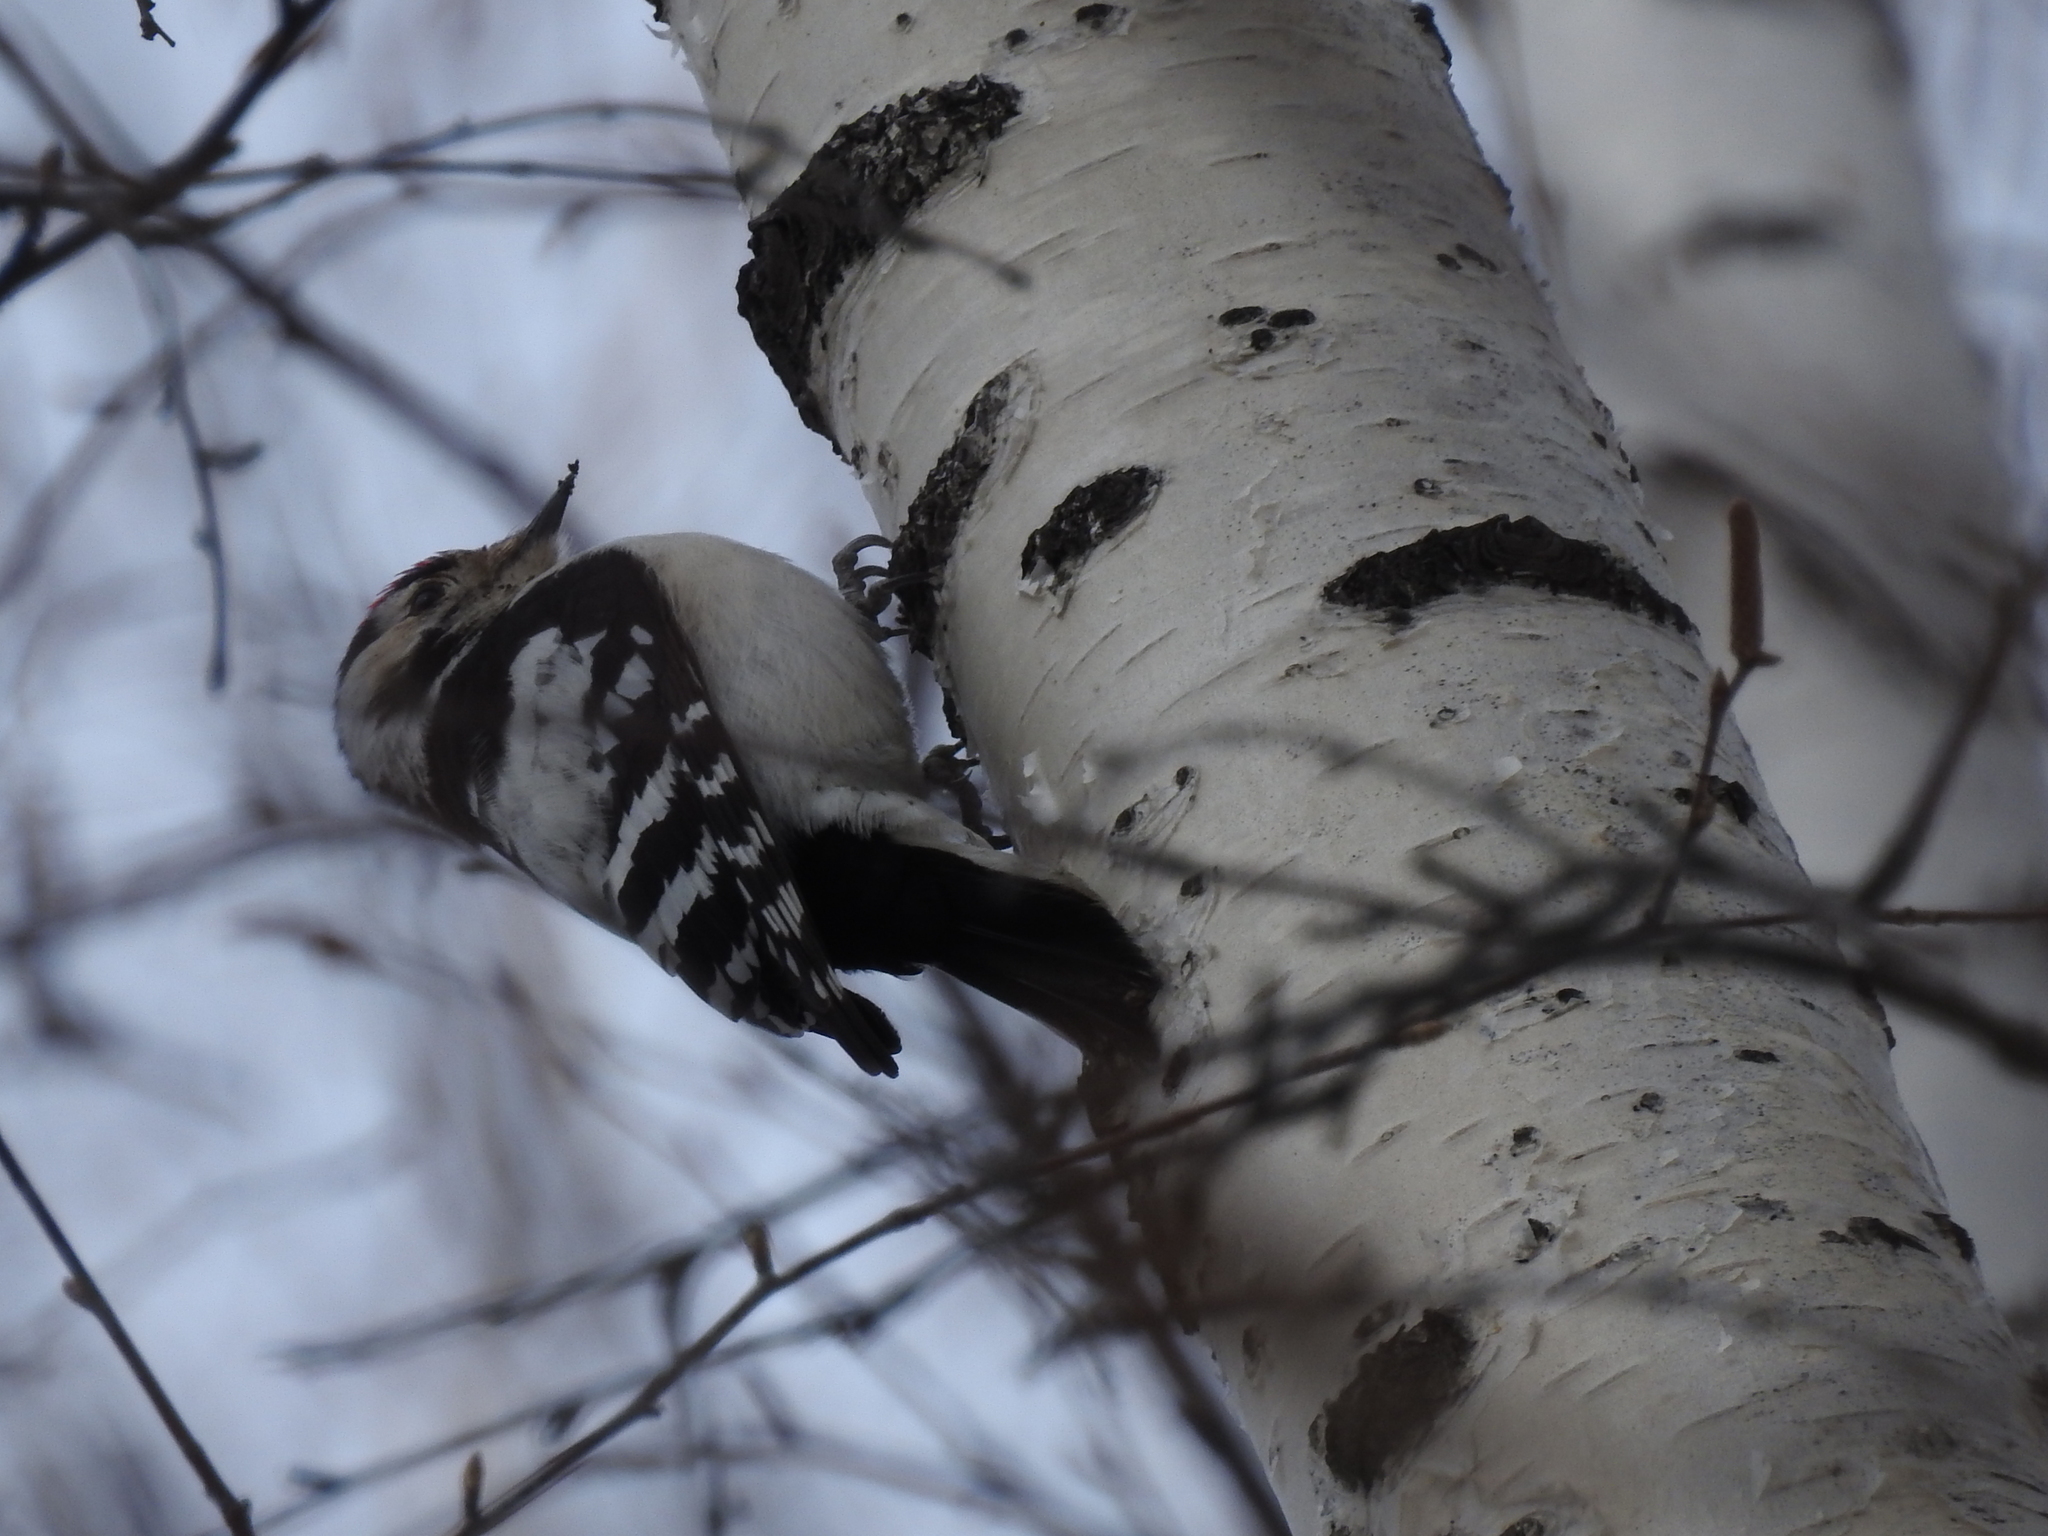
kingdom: Animalia
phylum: Chordata
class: Aves
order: Piciformes
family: Picidae
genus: Dryobates
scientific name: Dryobates minor
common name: Lesser spotted woodpecker
